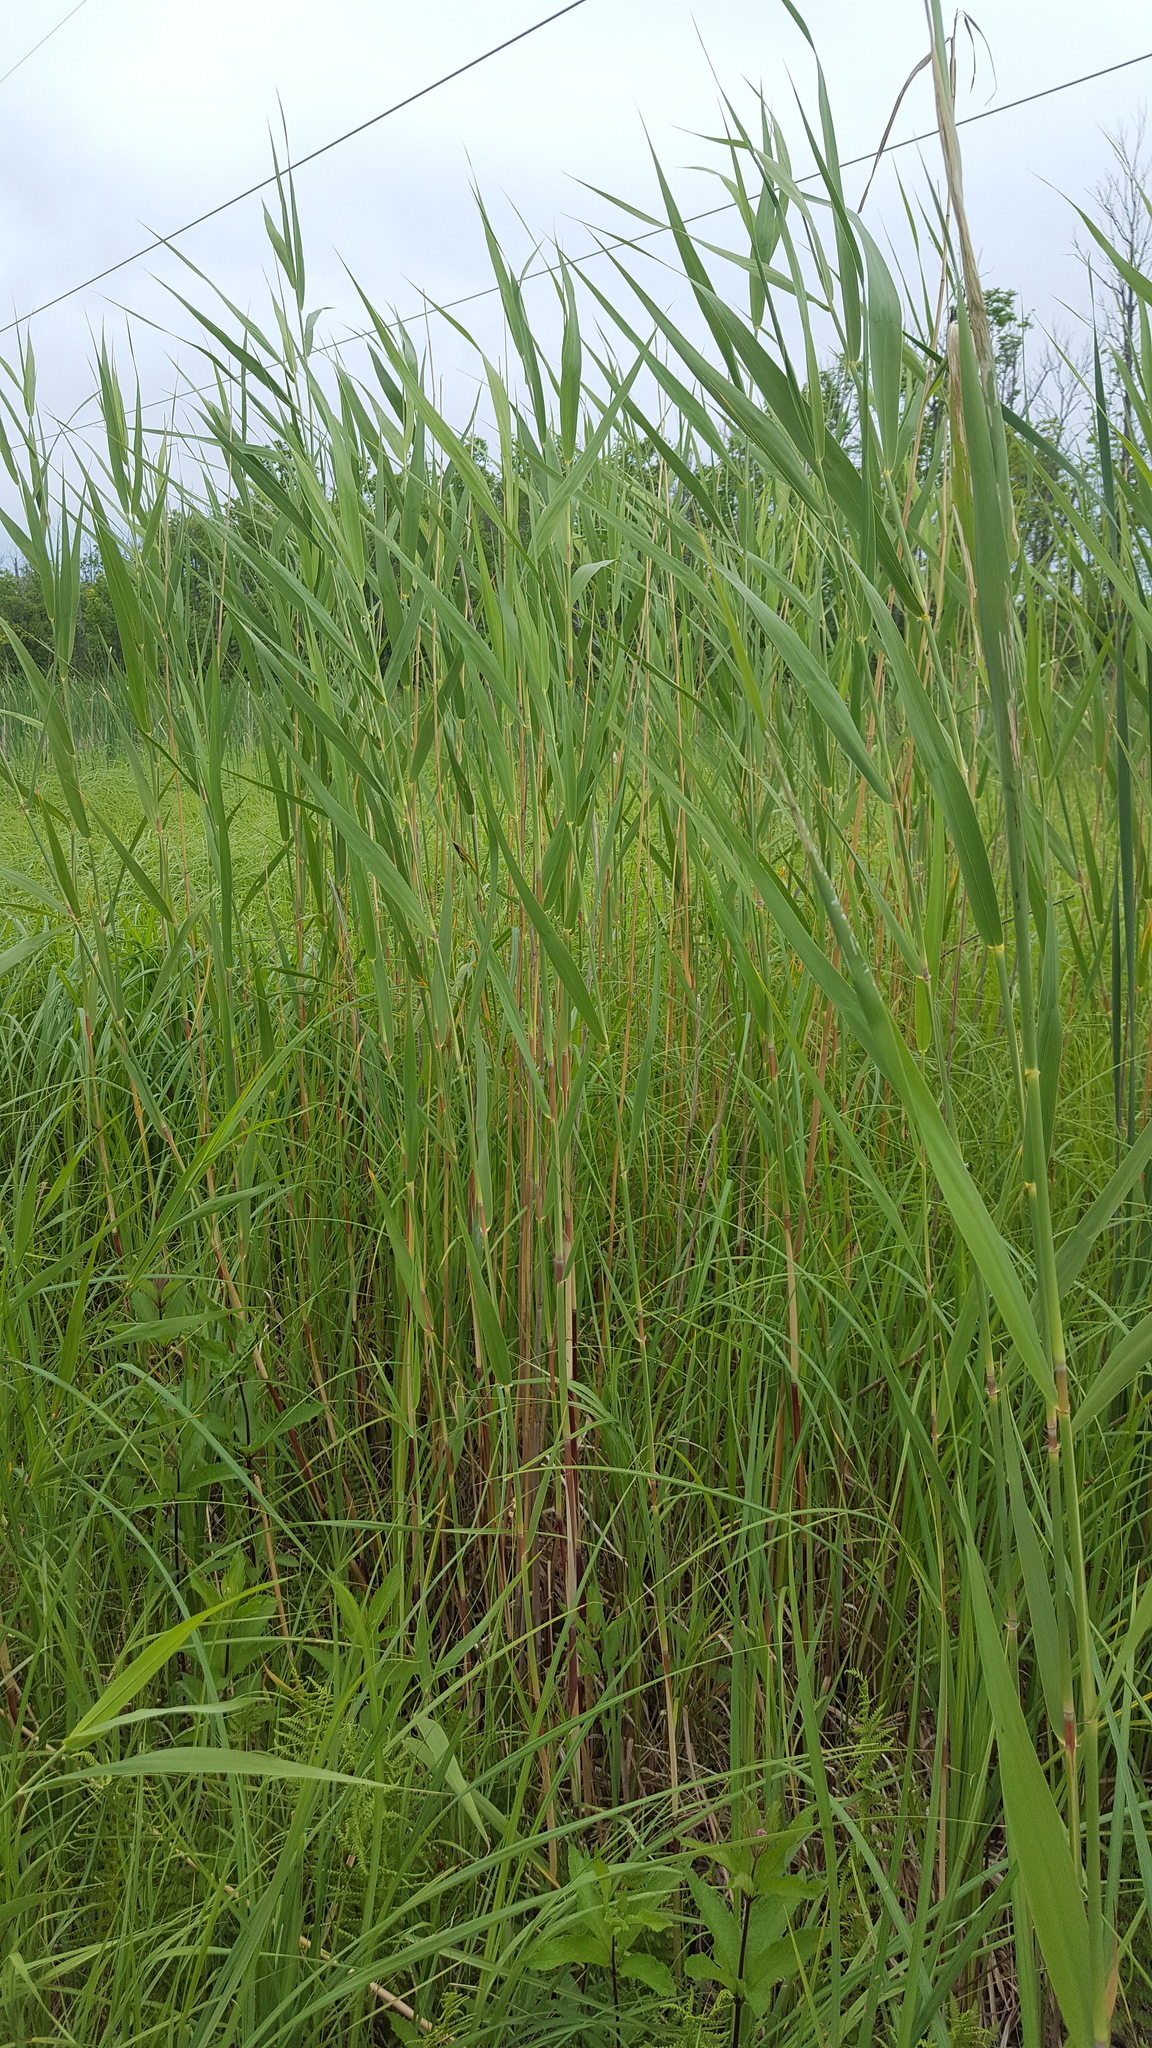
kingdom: Plantae
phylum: Tracheophyta
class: Liliopsida
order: Poales
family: Poaceae
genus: Phragmites
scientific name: Phragmites australis
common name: Common reed
